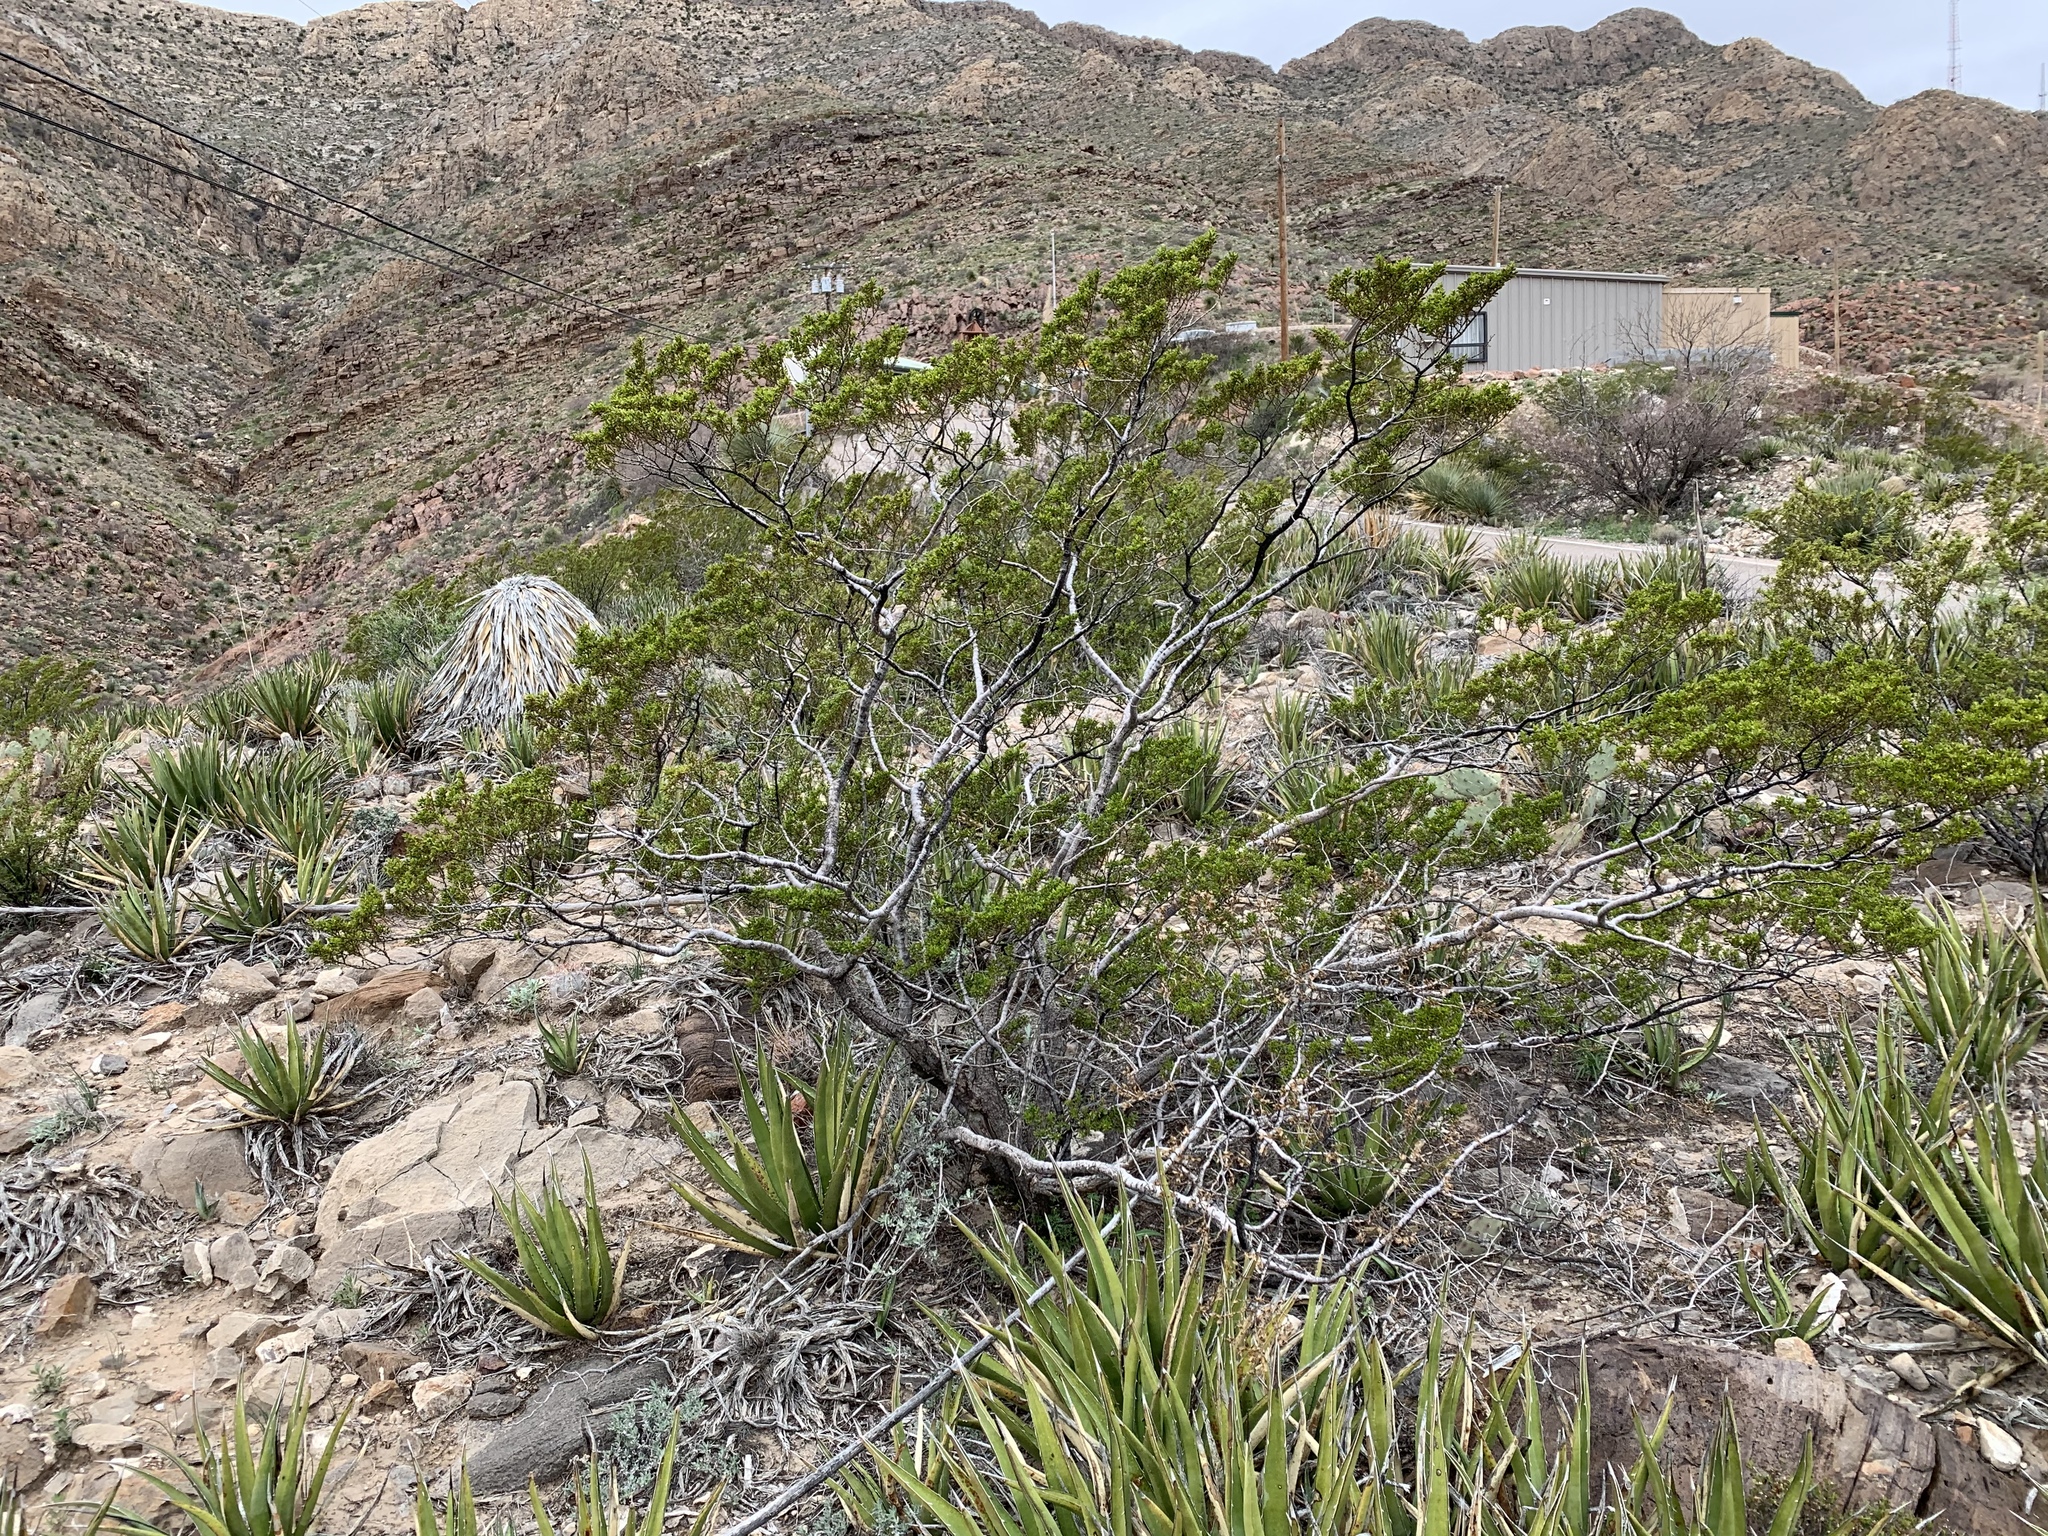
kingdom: Plantae
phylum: Tracheophyta
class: Magnoliopsida
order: Zygophyllales
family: Zygophyllaceae
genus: Larrea
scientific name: Larrea tridentata
